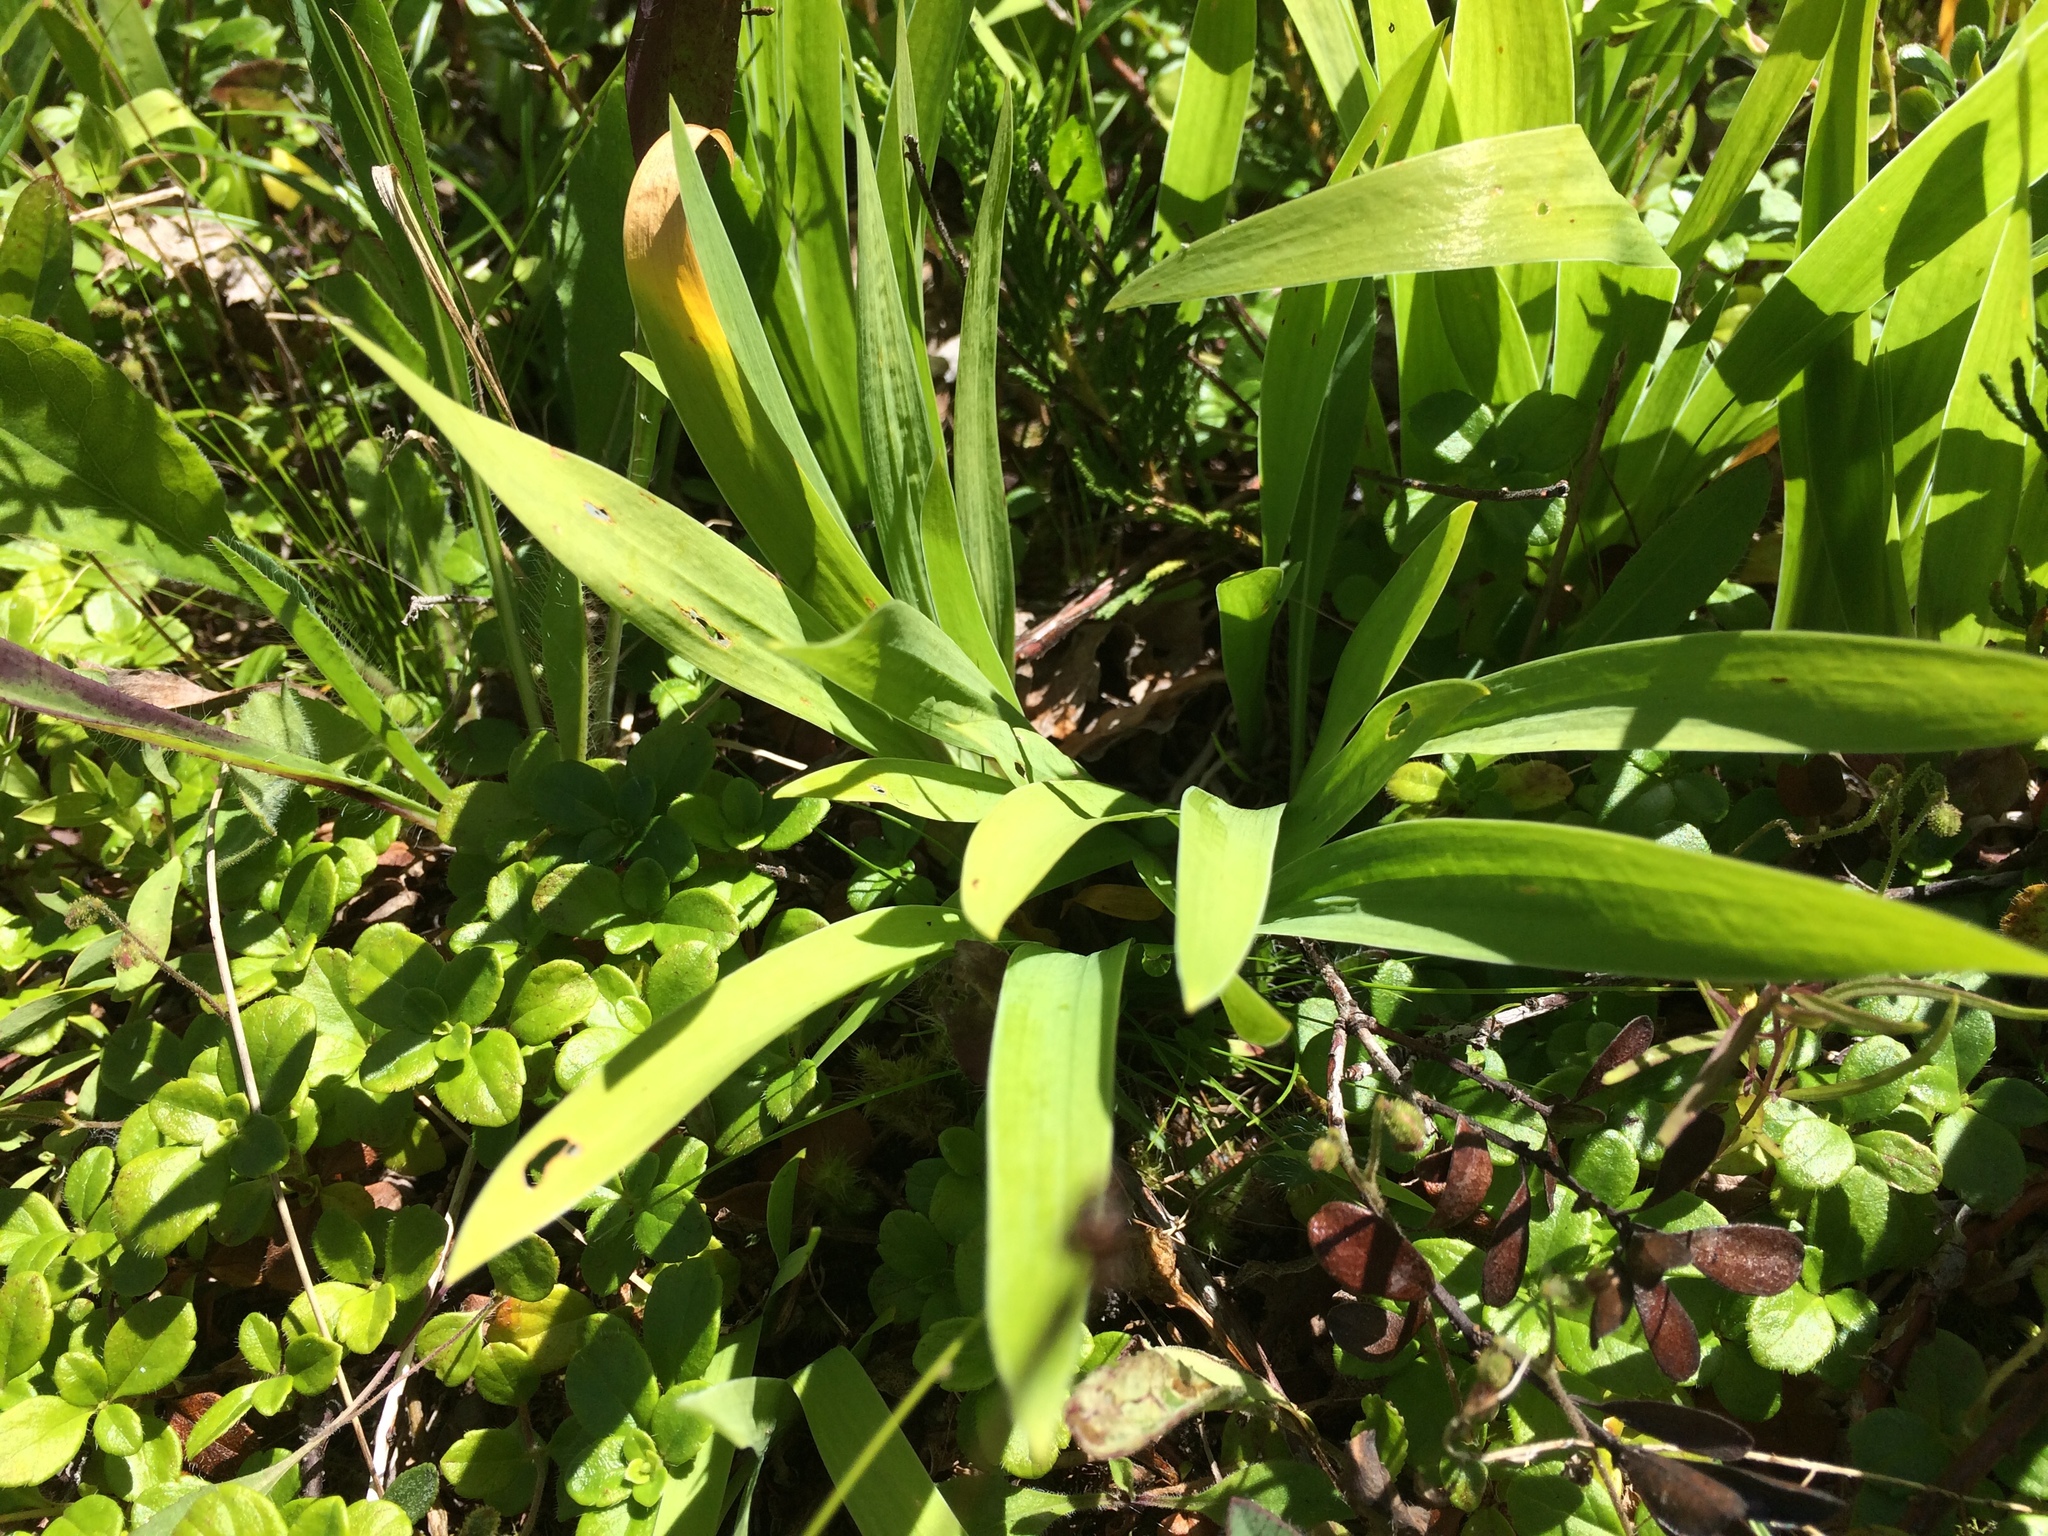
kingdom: Plantae
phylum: Tracheophyta
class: Liliopsida
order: Asparagales
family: Iridaceae
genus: Iris
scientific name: Iris lacustris
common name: Dwarf lake iris
